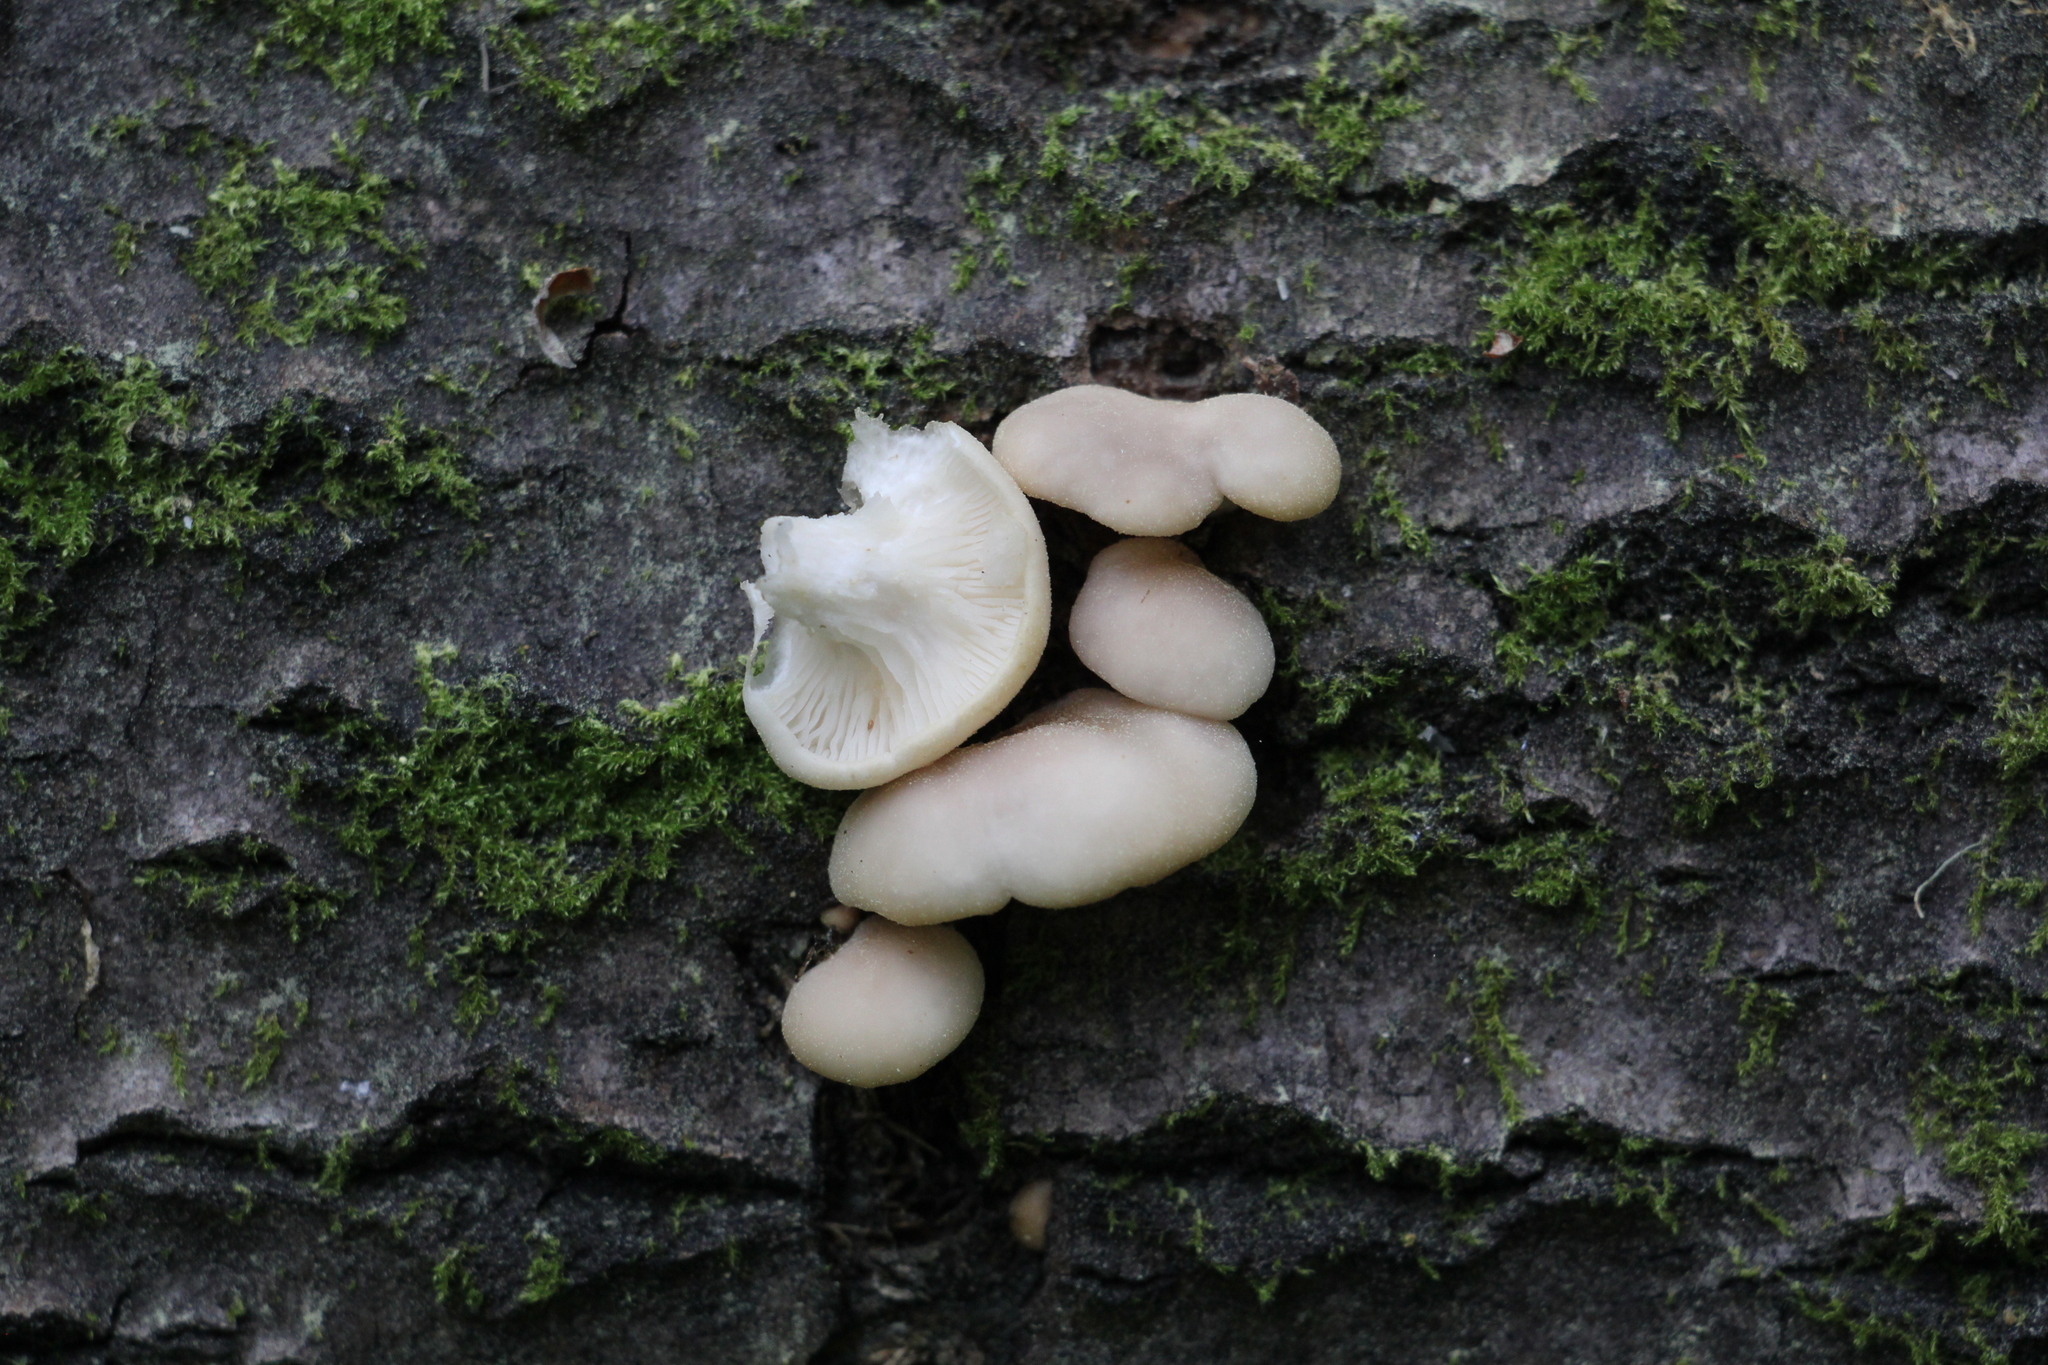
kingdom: Fungi
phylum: Basidiomycota
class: Agaricomycetes
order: Agaricales
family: Pleurotaceae
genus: Pleurotus
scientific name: Pleurotus pulmonarius
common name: Pale oyster
